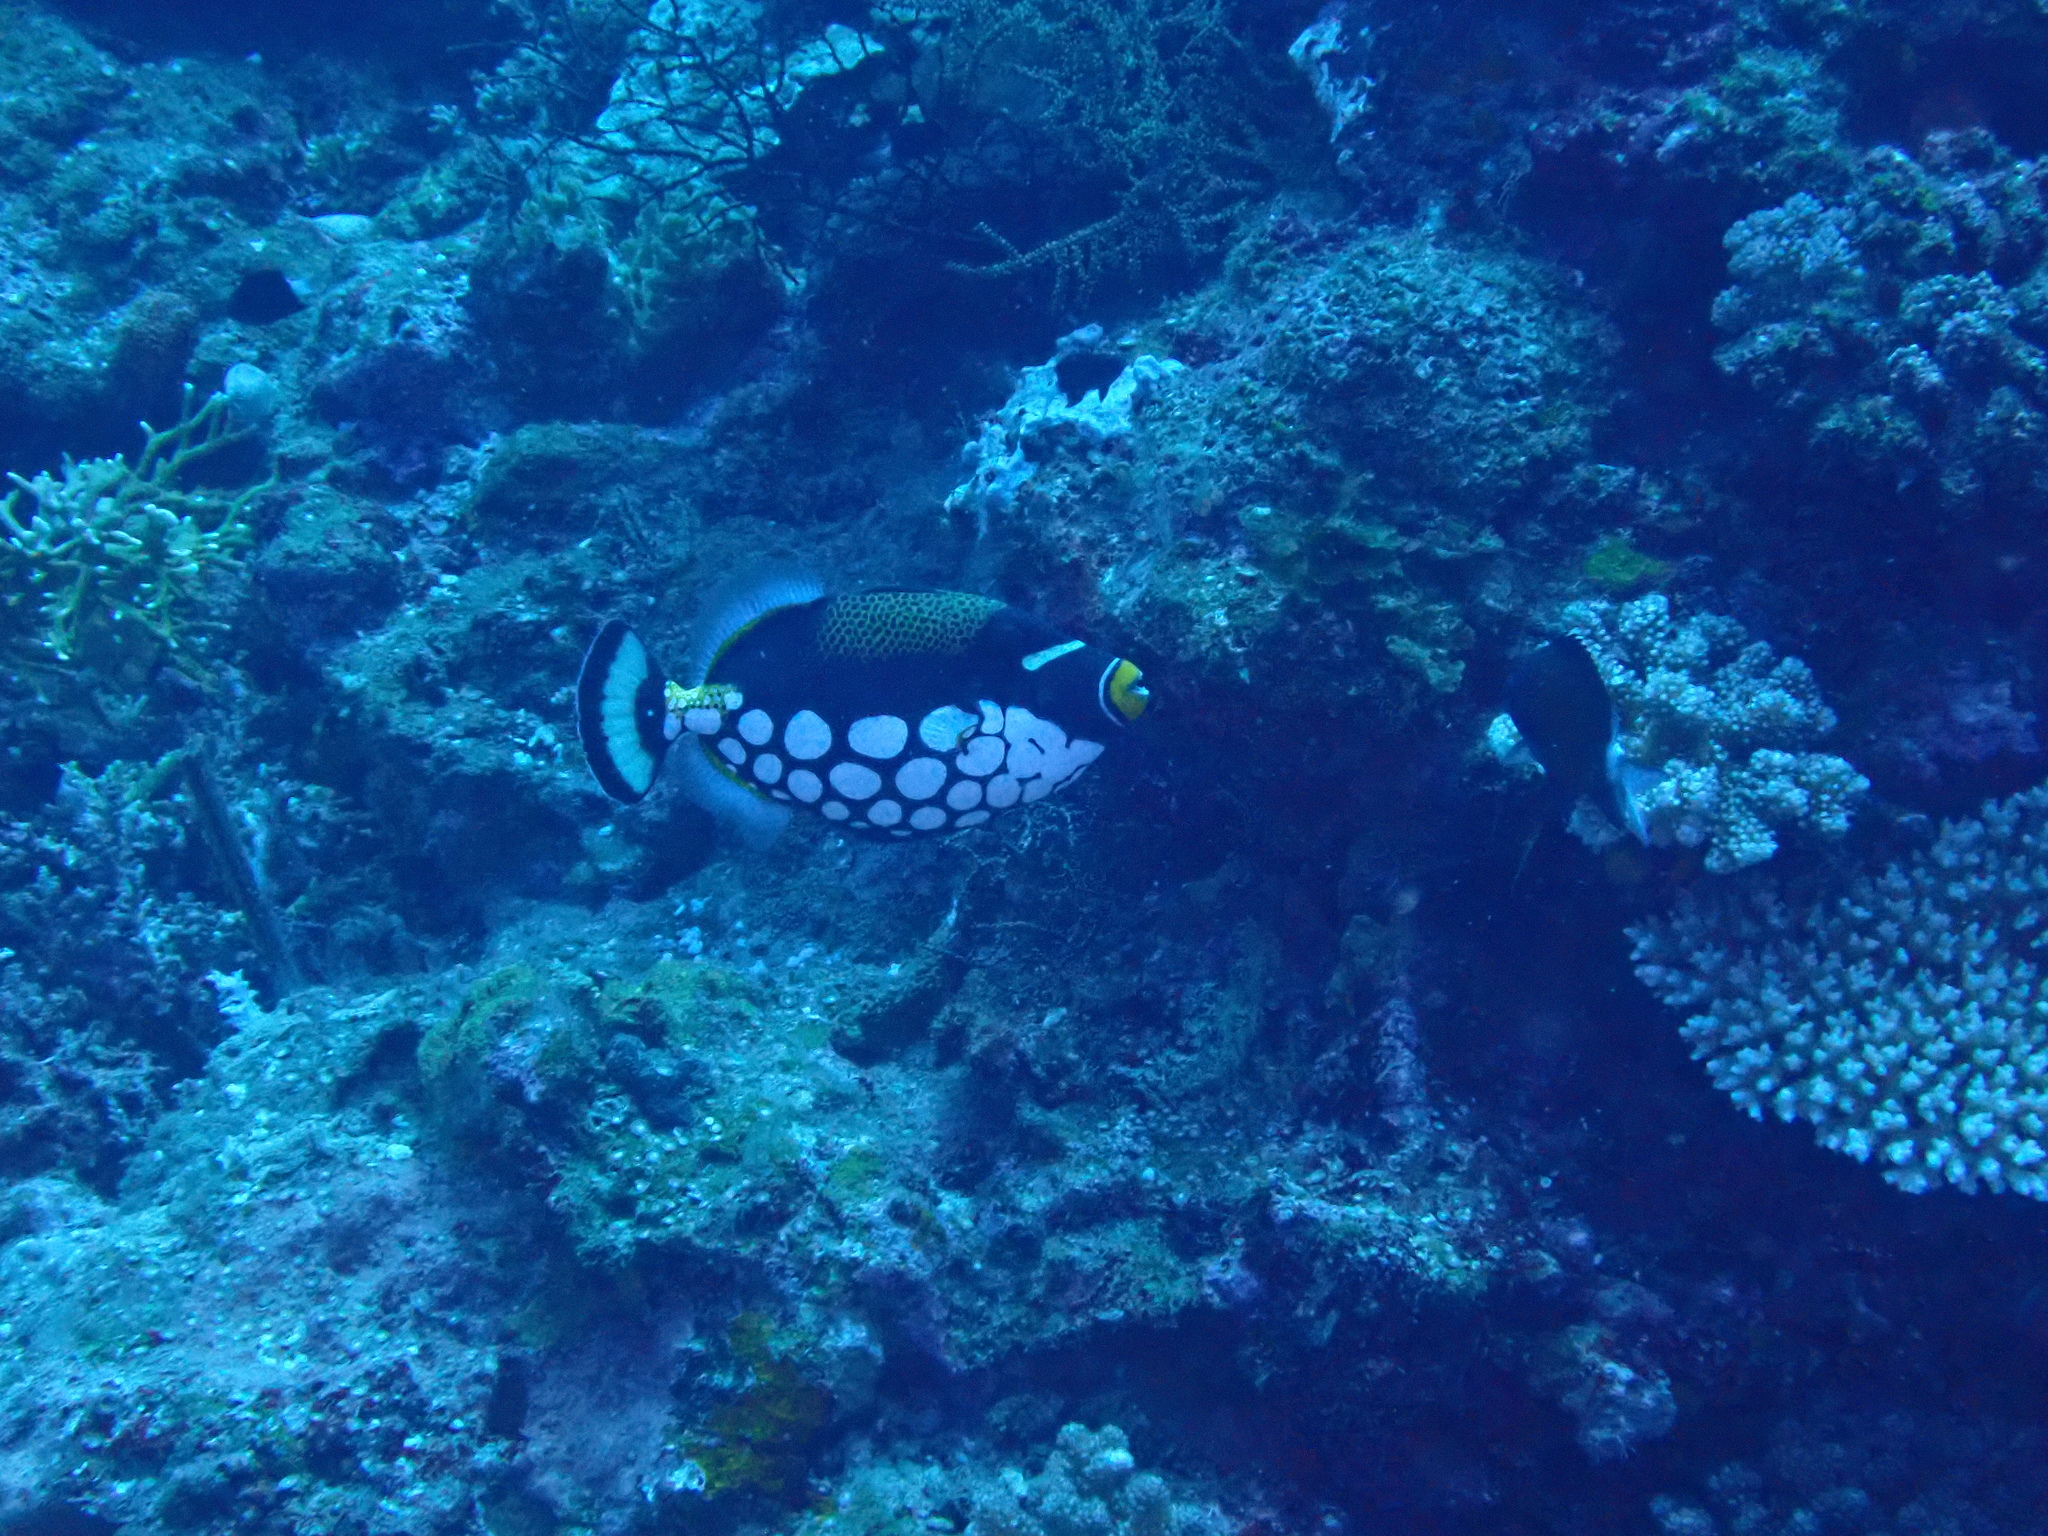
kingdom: Animalia
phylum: Chordata
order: Tetraodontiformes
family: Balistidae
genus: Balistoides
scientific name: Balistoides conspicillum
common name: Clown triggerfish
